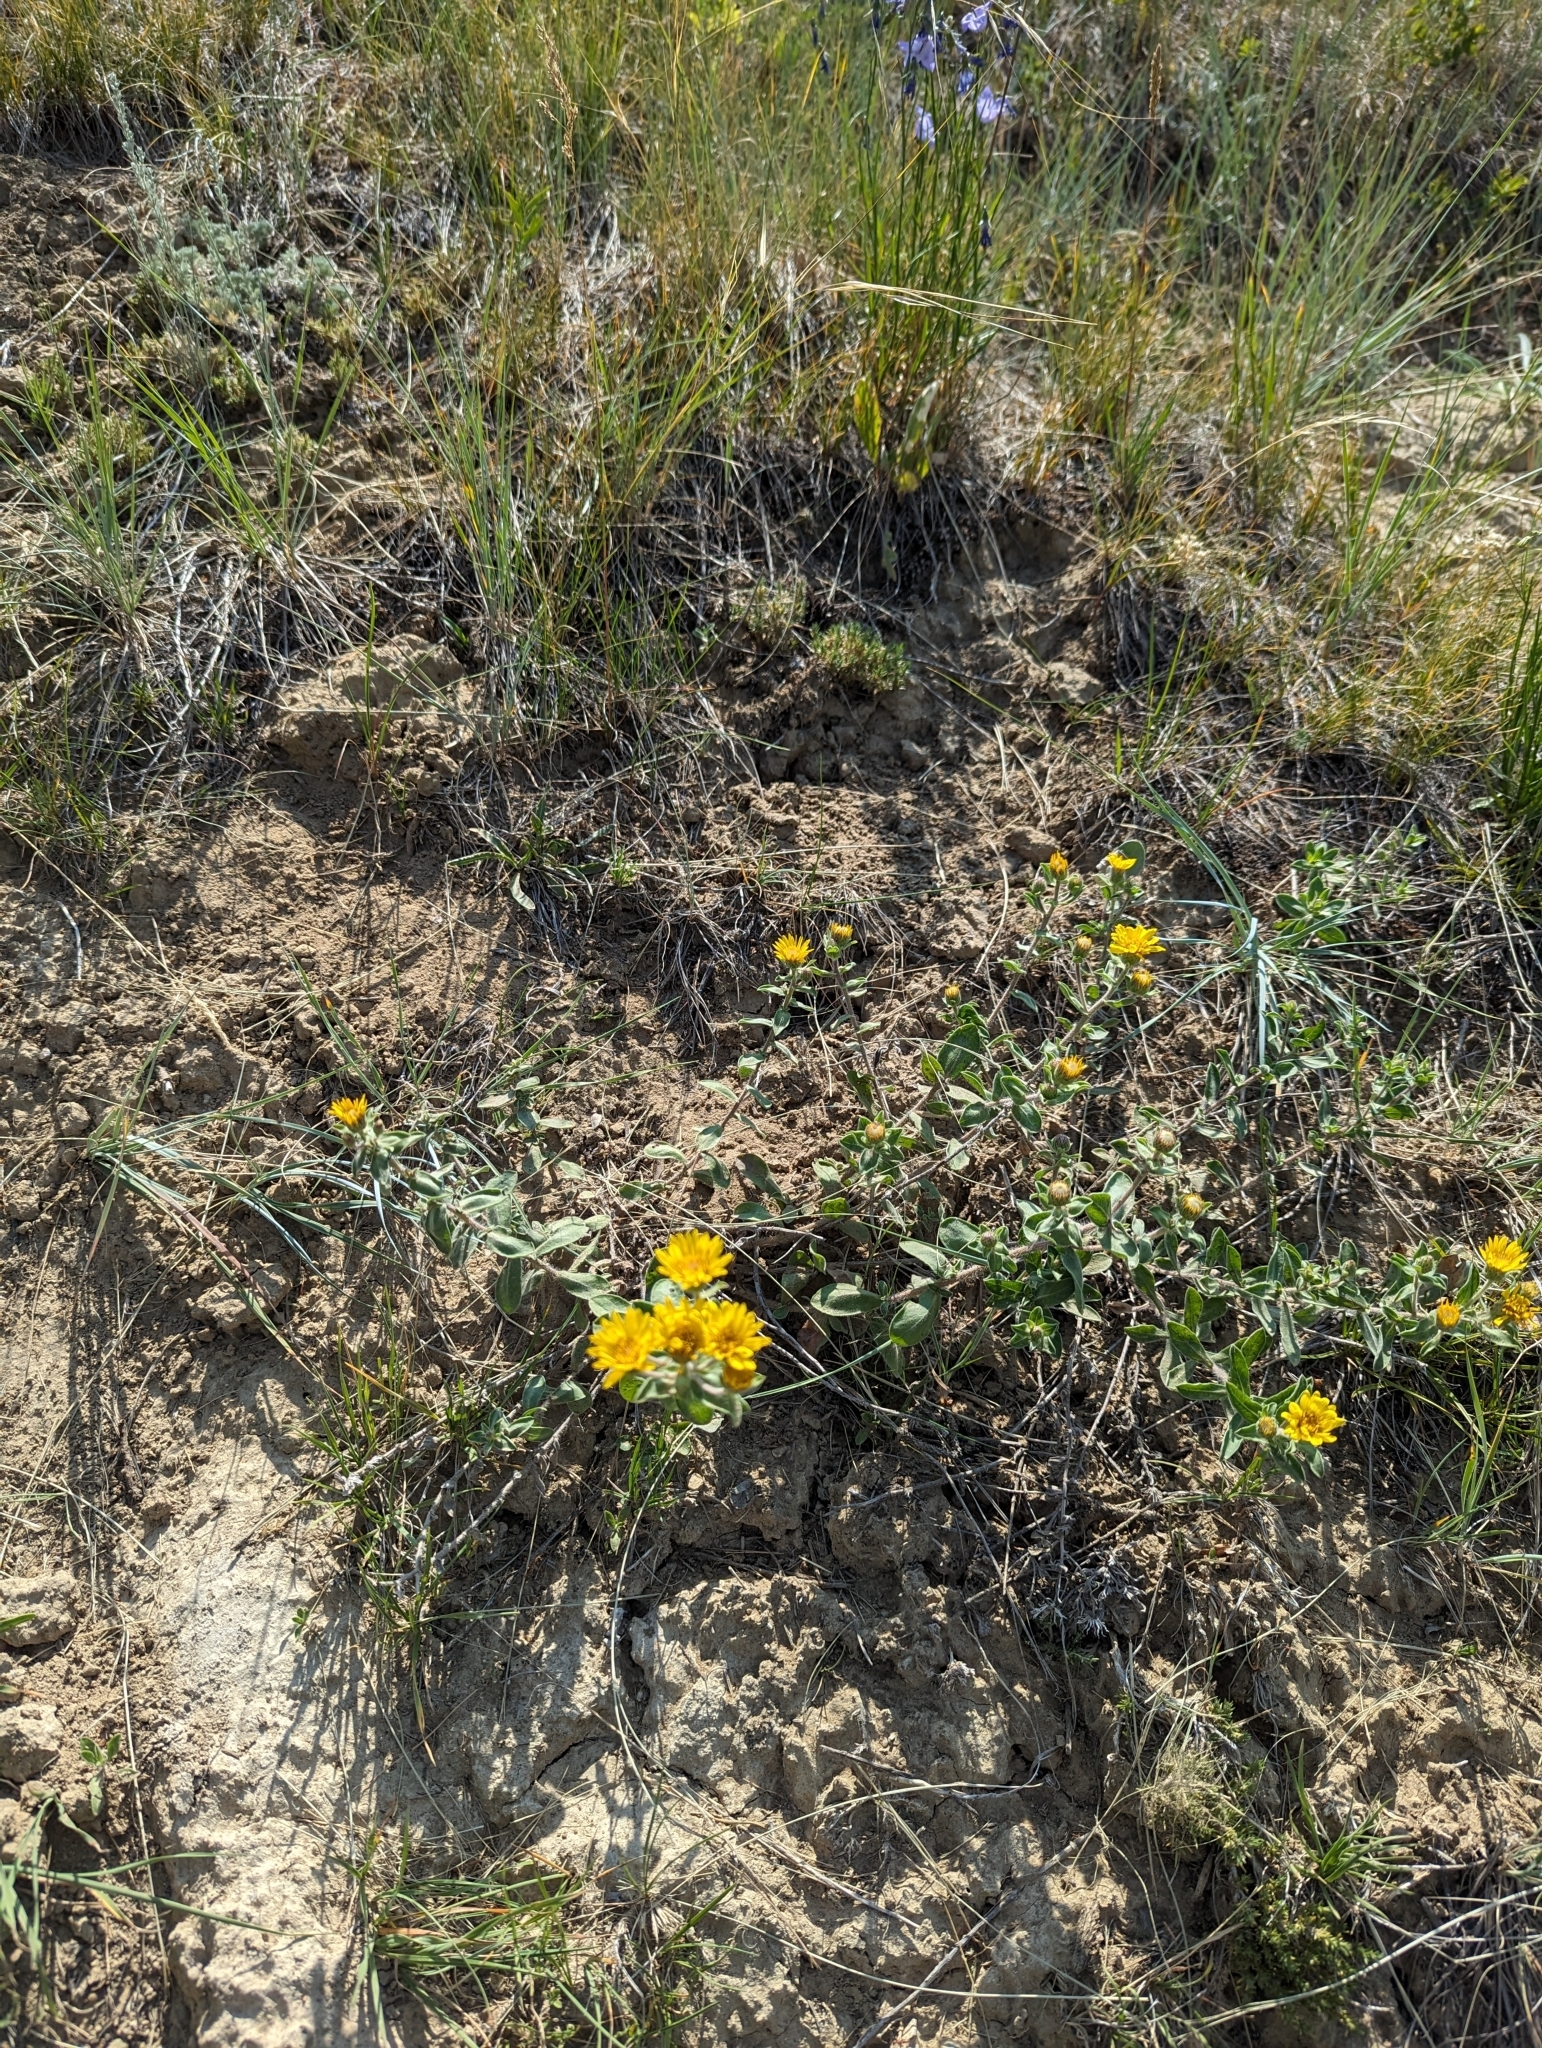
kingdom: Plantae
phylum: Tracheophyta
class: Magnoliopsida
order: Asterales
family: Asteraceae
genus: Heterotheca
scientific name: Heterotheca villosa
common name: Hairy false goldenaster
